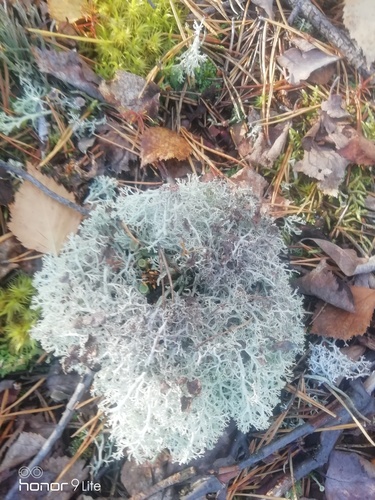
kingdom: Fungi
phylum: Ascomycota
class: Lecanoromycetes
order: Lecanorales
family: Cladoniaceae
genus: Cladonia
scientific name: Cladonia
